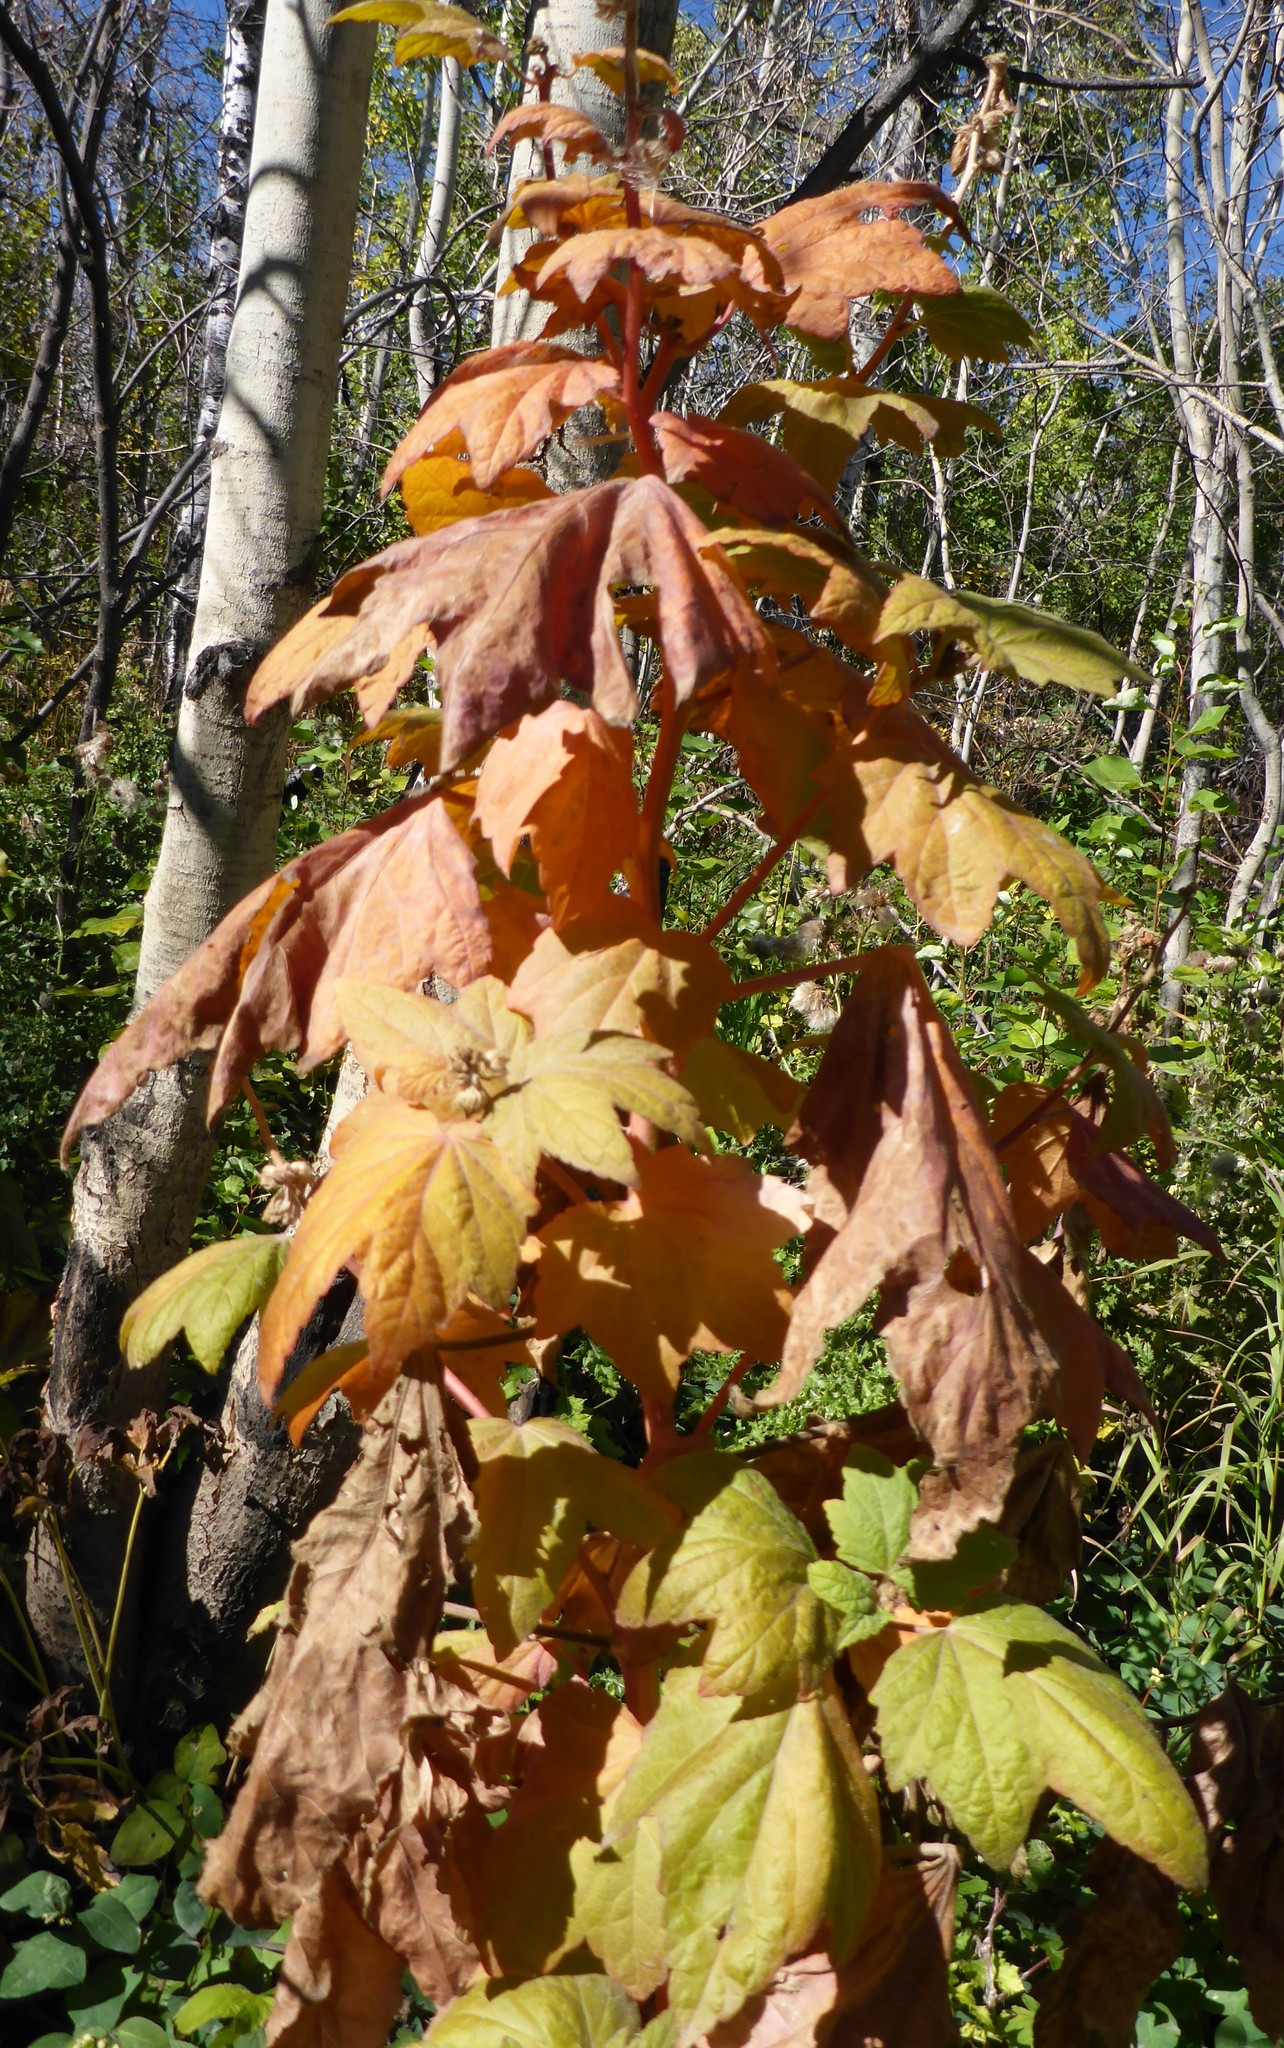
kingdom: Plantae
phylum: Tracheophyta
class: Magnoliopsida
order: Malvales
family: Malvaceae
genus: Iliamna
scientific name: Iliamna rivularis
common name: Wild hollyhock
